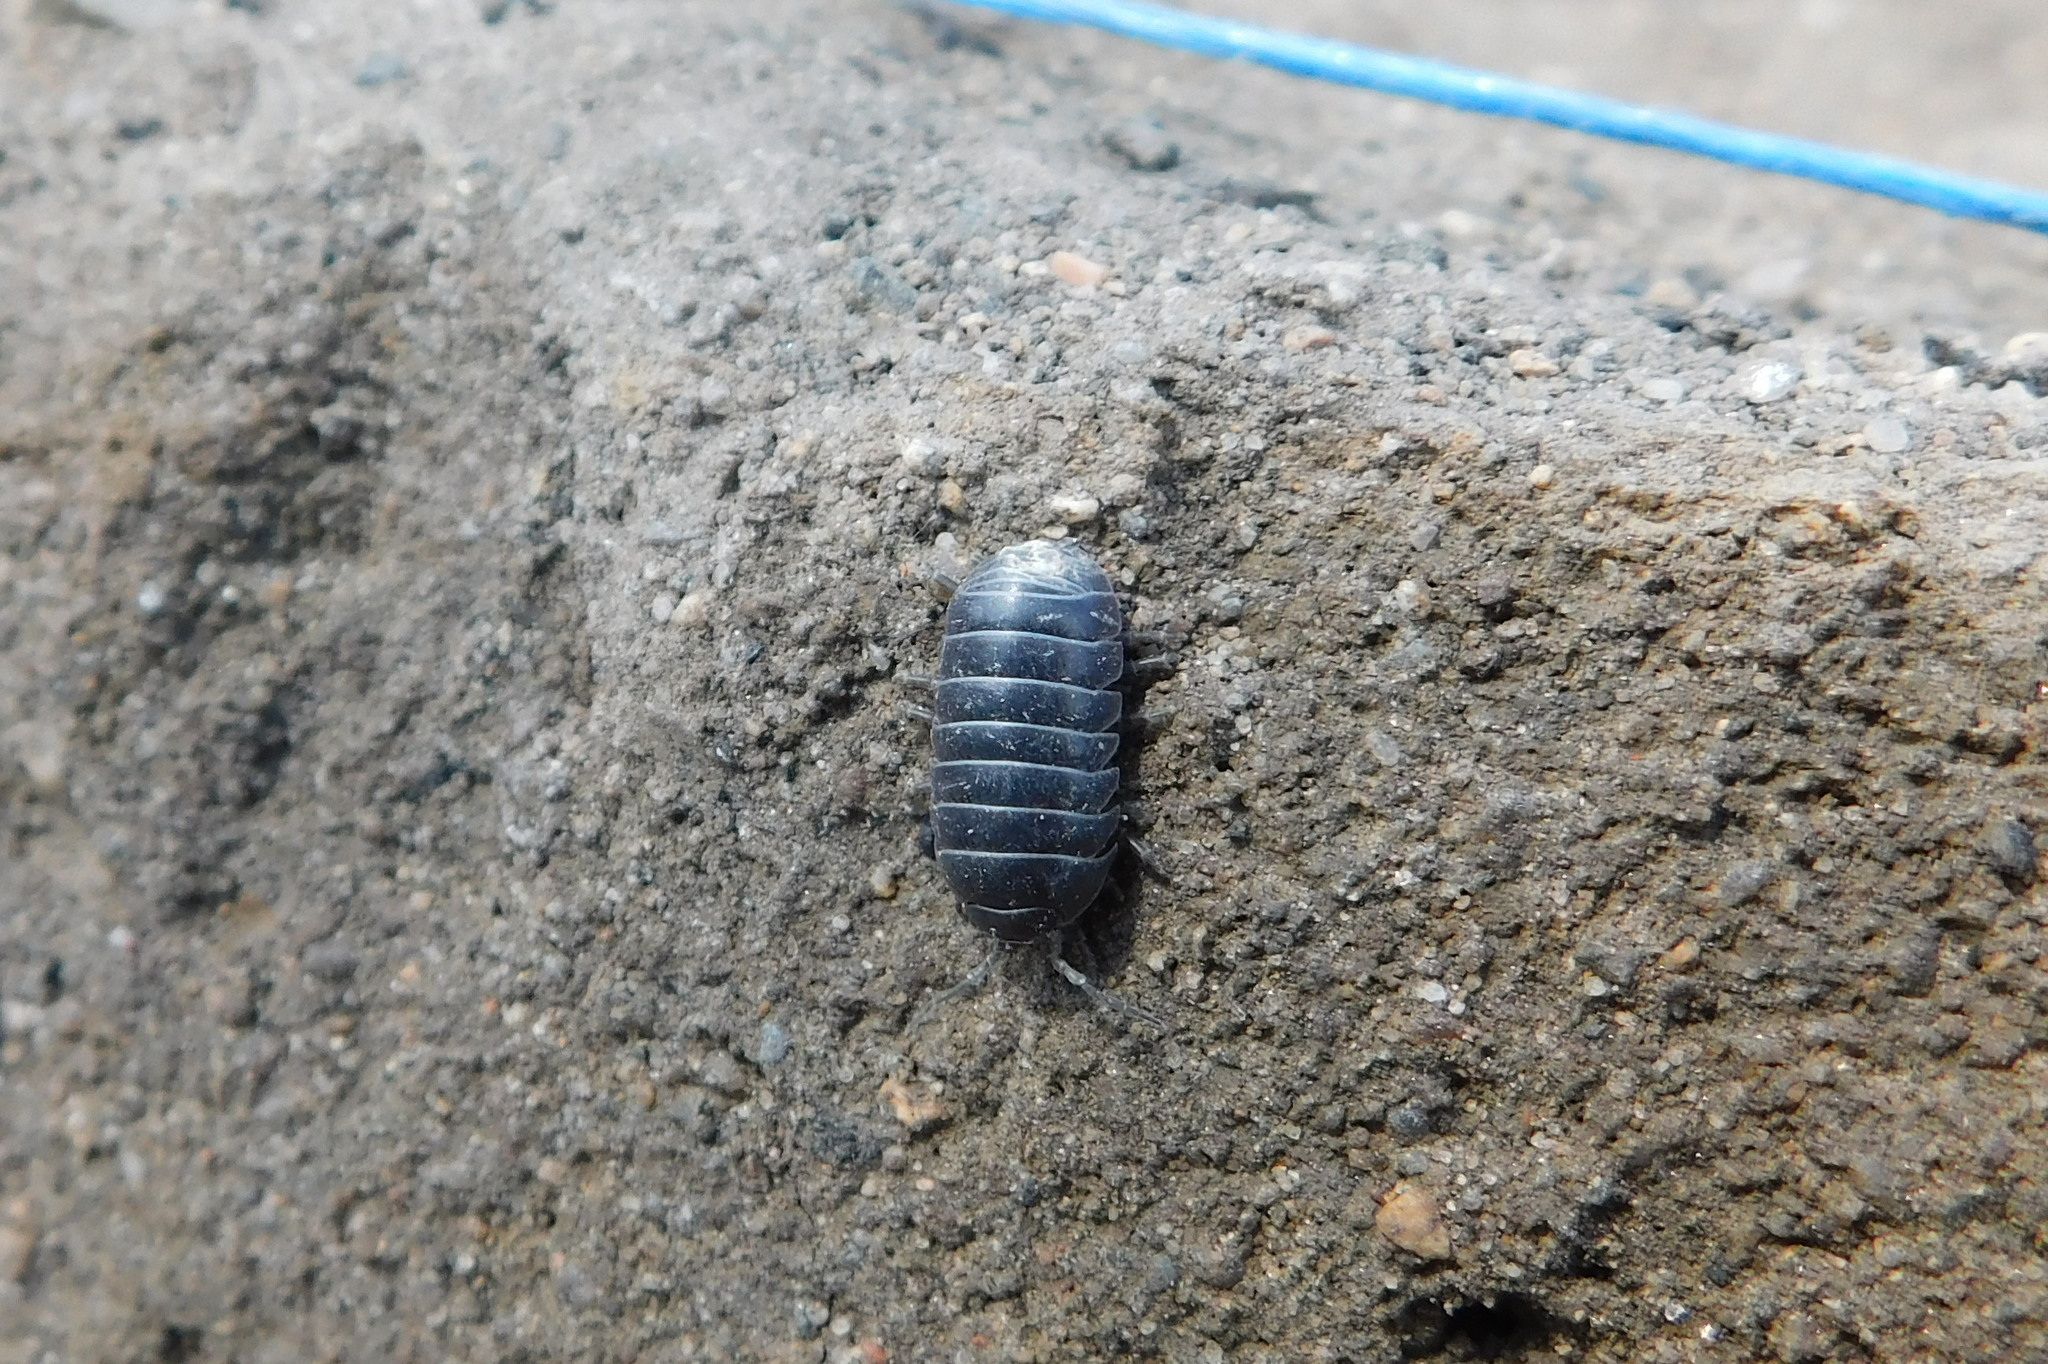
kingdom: Animalia
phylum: Arthropoda
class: Malacostraca
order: Isopoda
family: Armadillidiidae
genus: Armadillidium
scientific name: Armadillidium vulgare
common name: Common pill woodlouse
